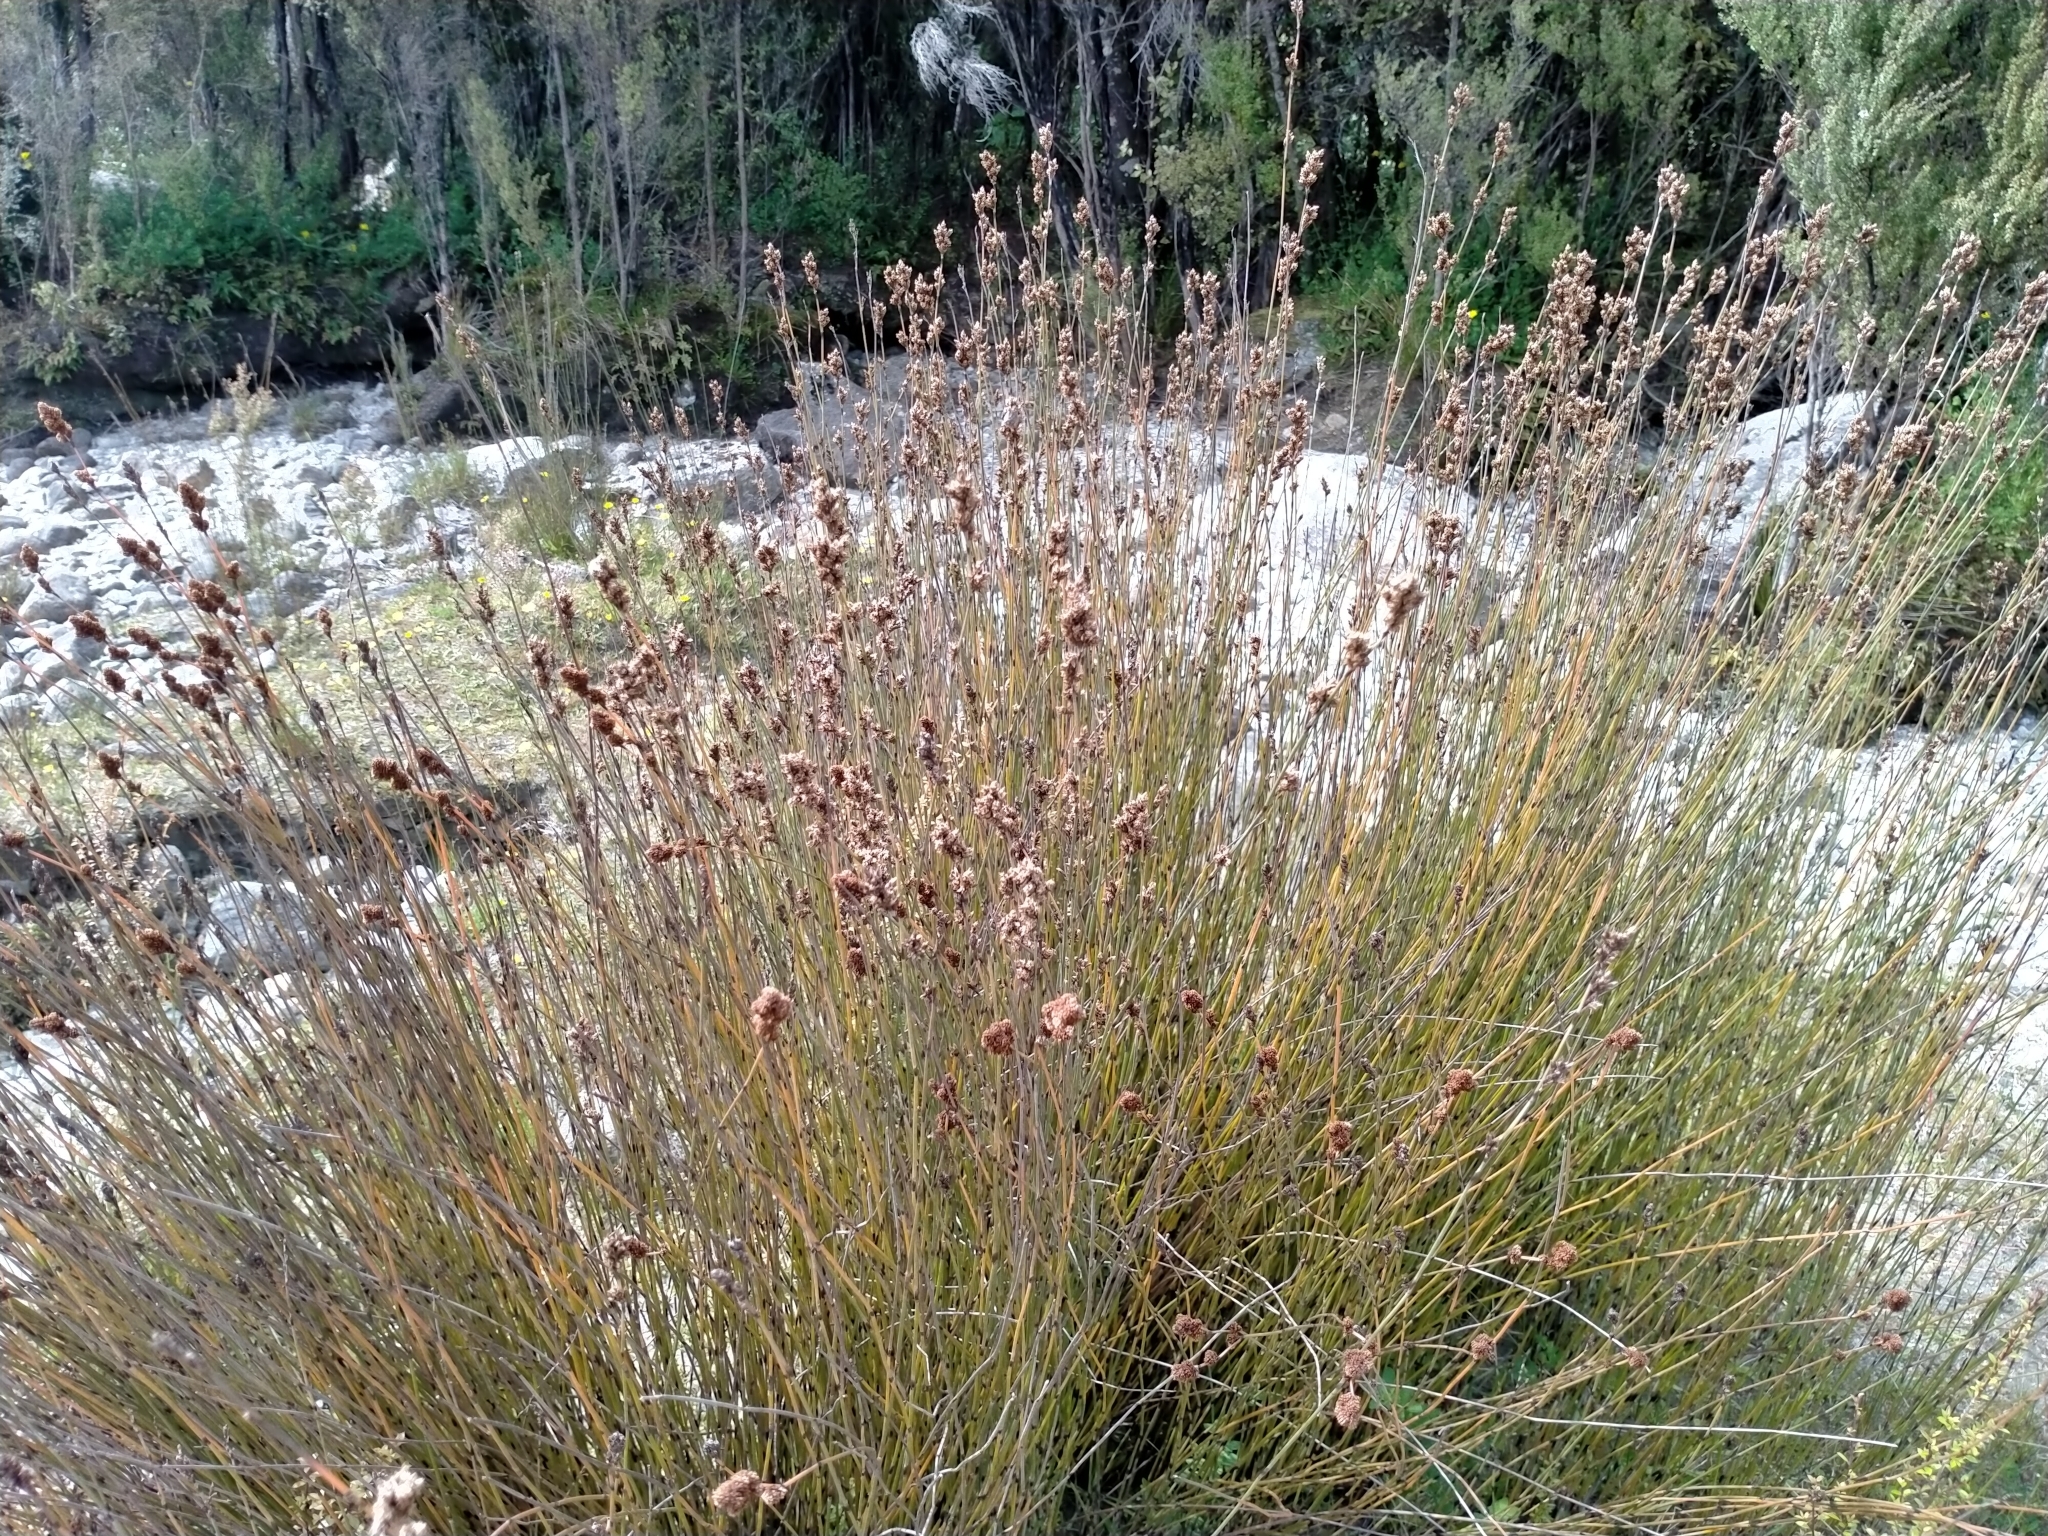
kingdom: Plantae
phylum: Tracheophyta
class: Liliopsida
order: Poales
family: Restionaceae
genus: Apodasmia
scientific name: Apodasmia similis
